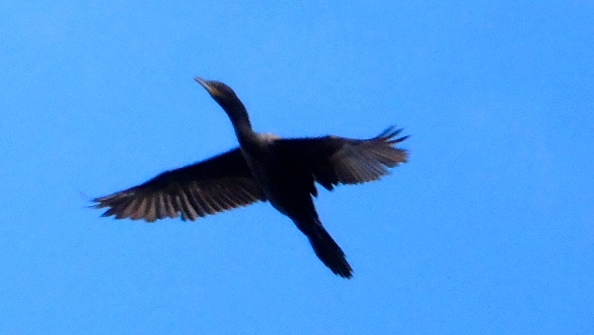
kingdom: Animalia
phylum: Chordata
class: Aves
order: Suliformes
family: Phalacrocoracidae
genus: Phalacrocorax
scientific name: Phalacrocorax brasilianus
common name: Neotropic cormorant
